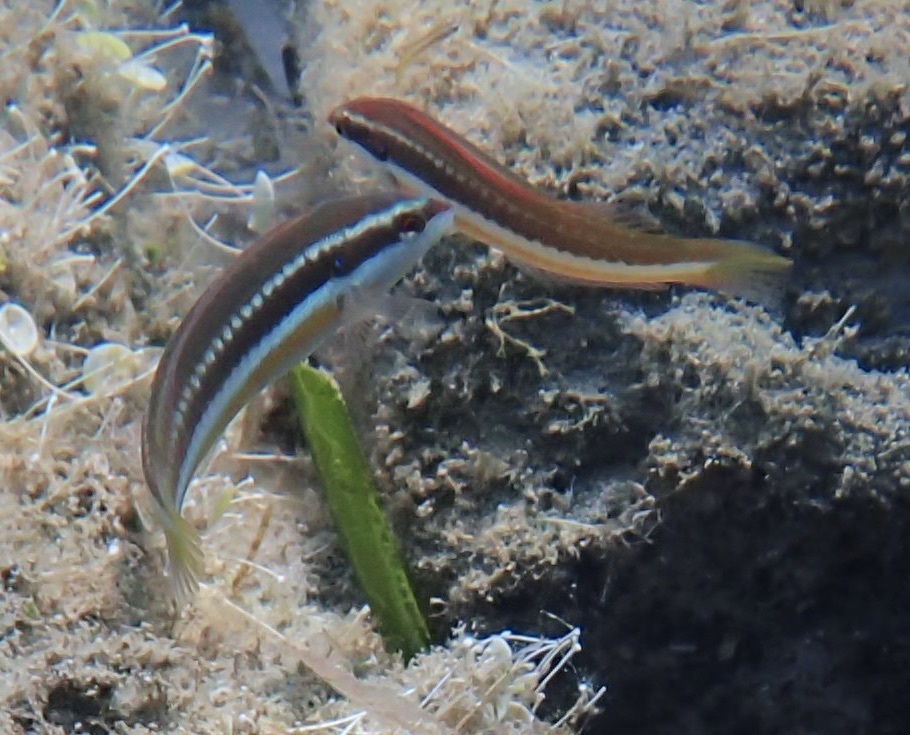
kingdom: Animalia
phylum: Chordata
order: Perciformes
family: Labridae
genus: Coris
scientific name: Coris julis
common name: Rainbow wrasse
